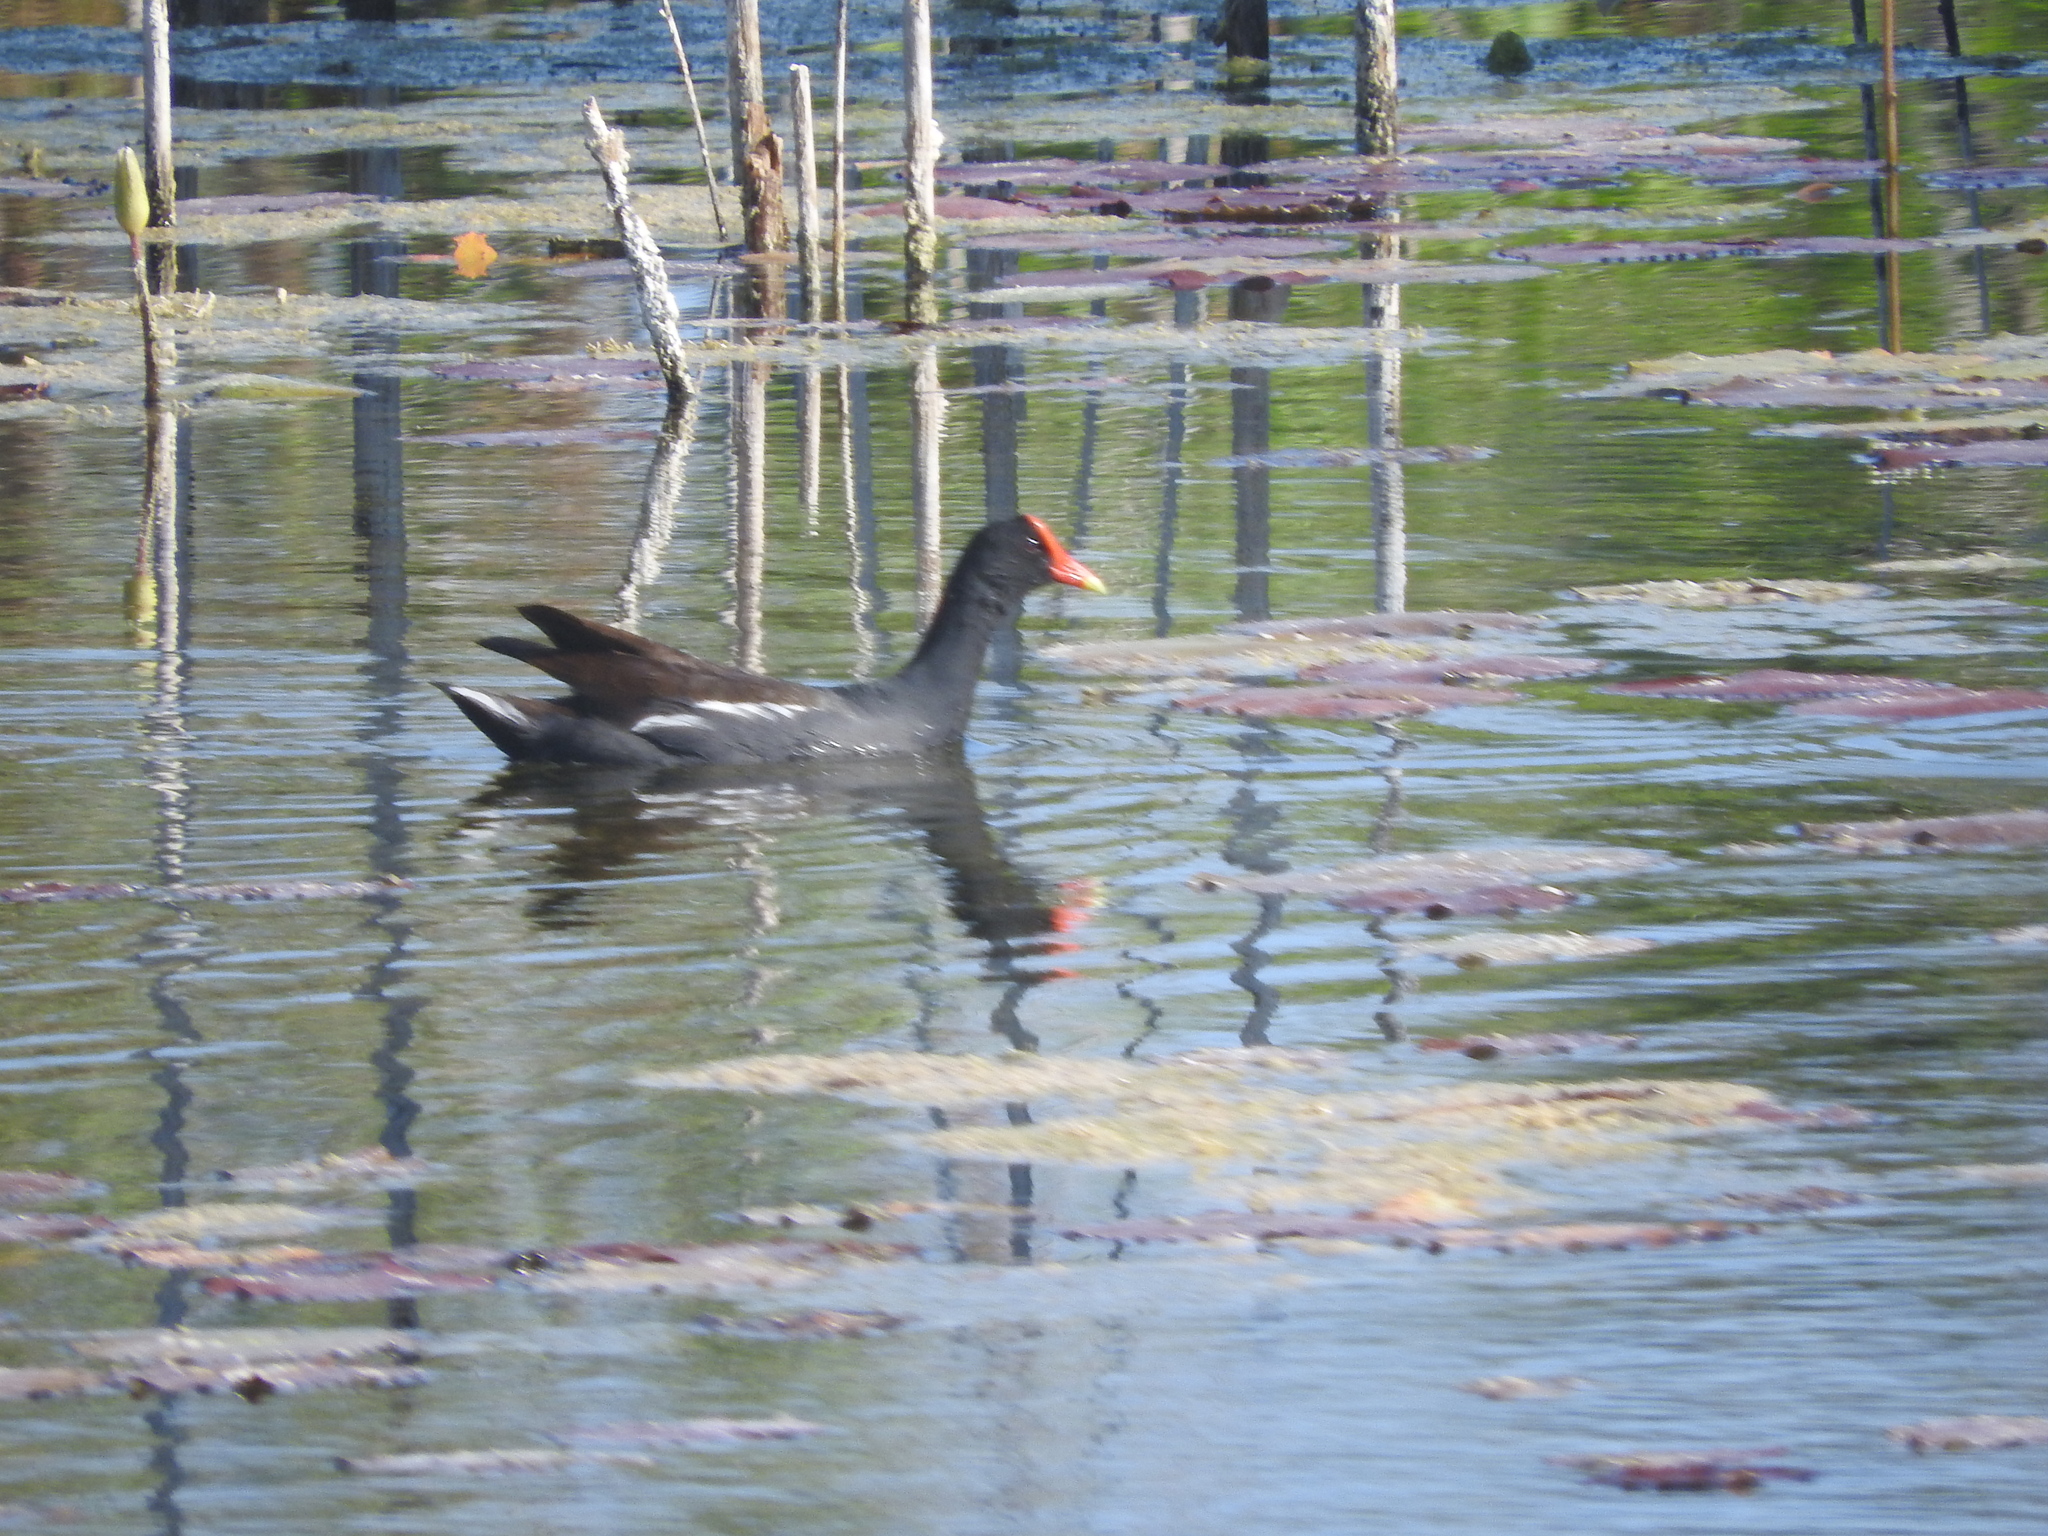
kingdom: Animalia
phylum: Chordata
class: Aves
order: Gruiformes
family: Rallidae
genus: Gallinula
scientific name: Gallinula chloropus
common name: Common moorhen
